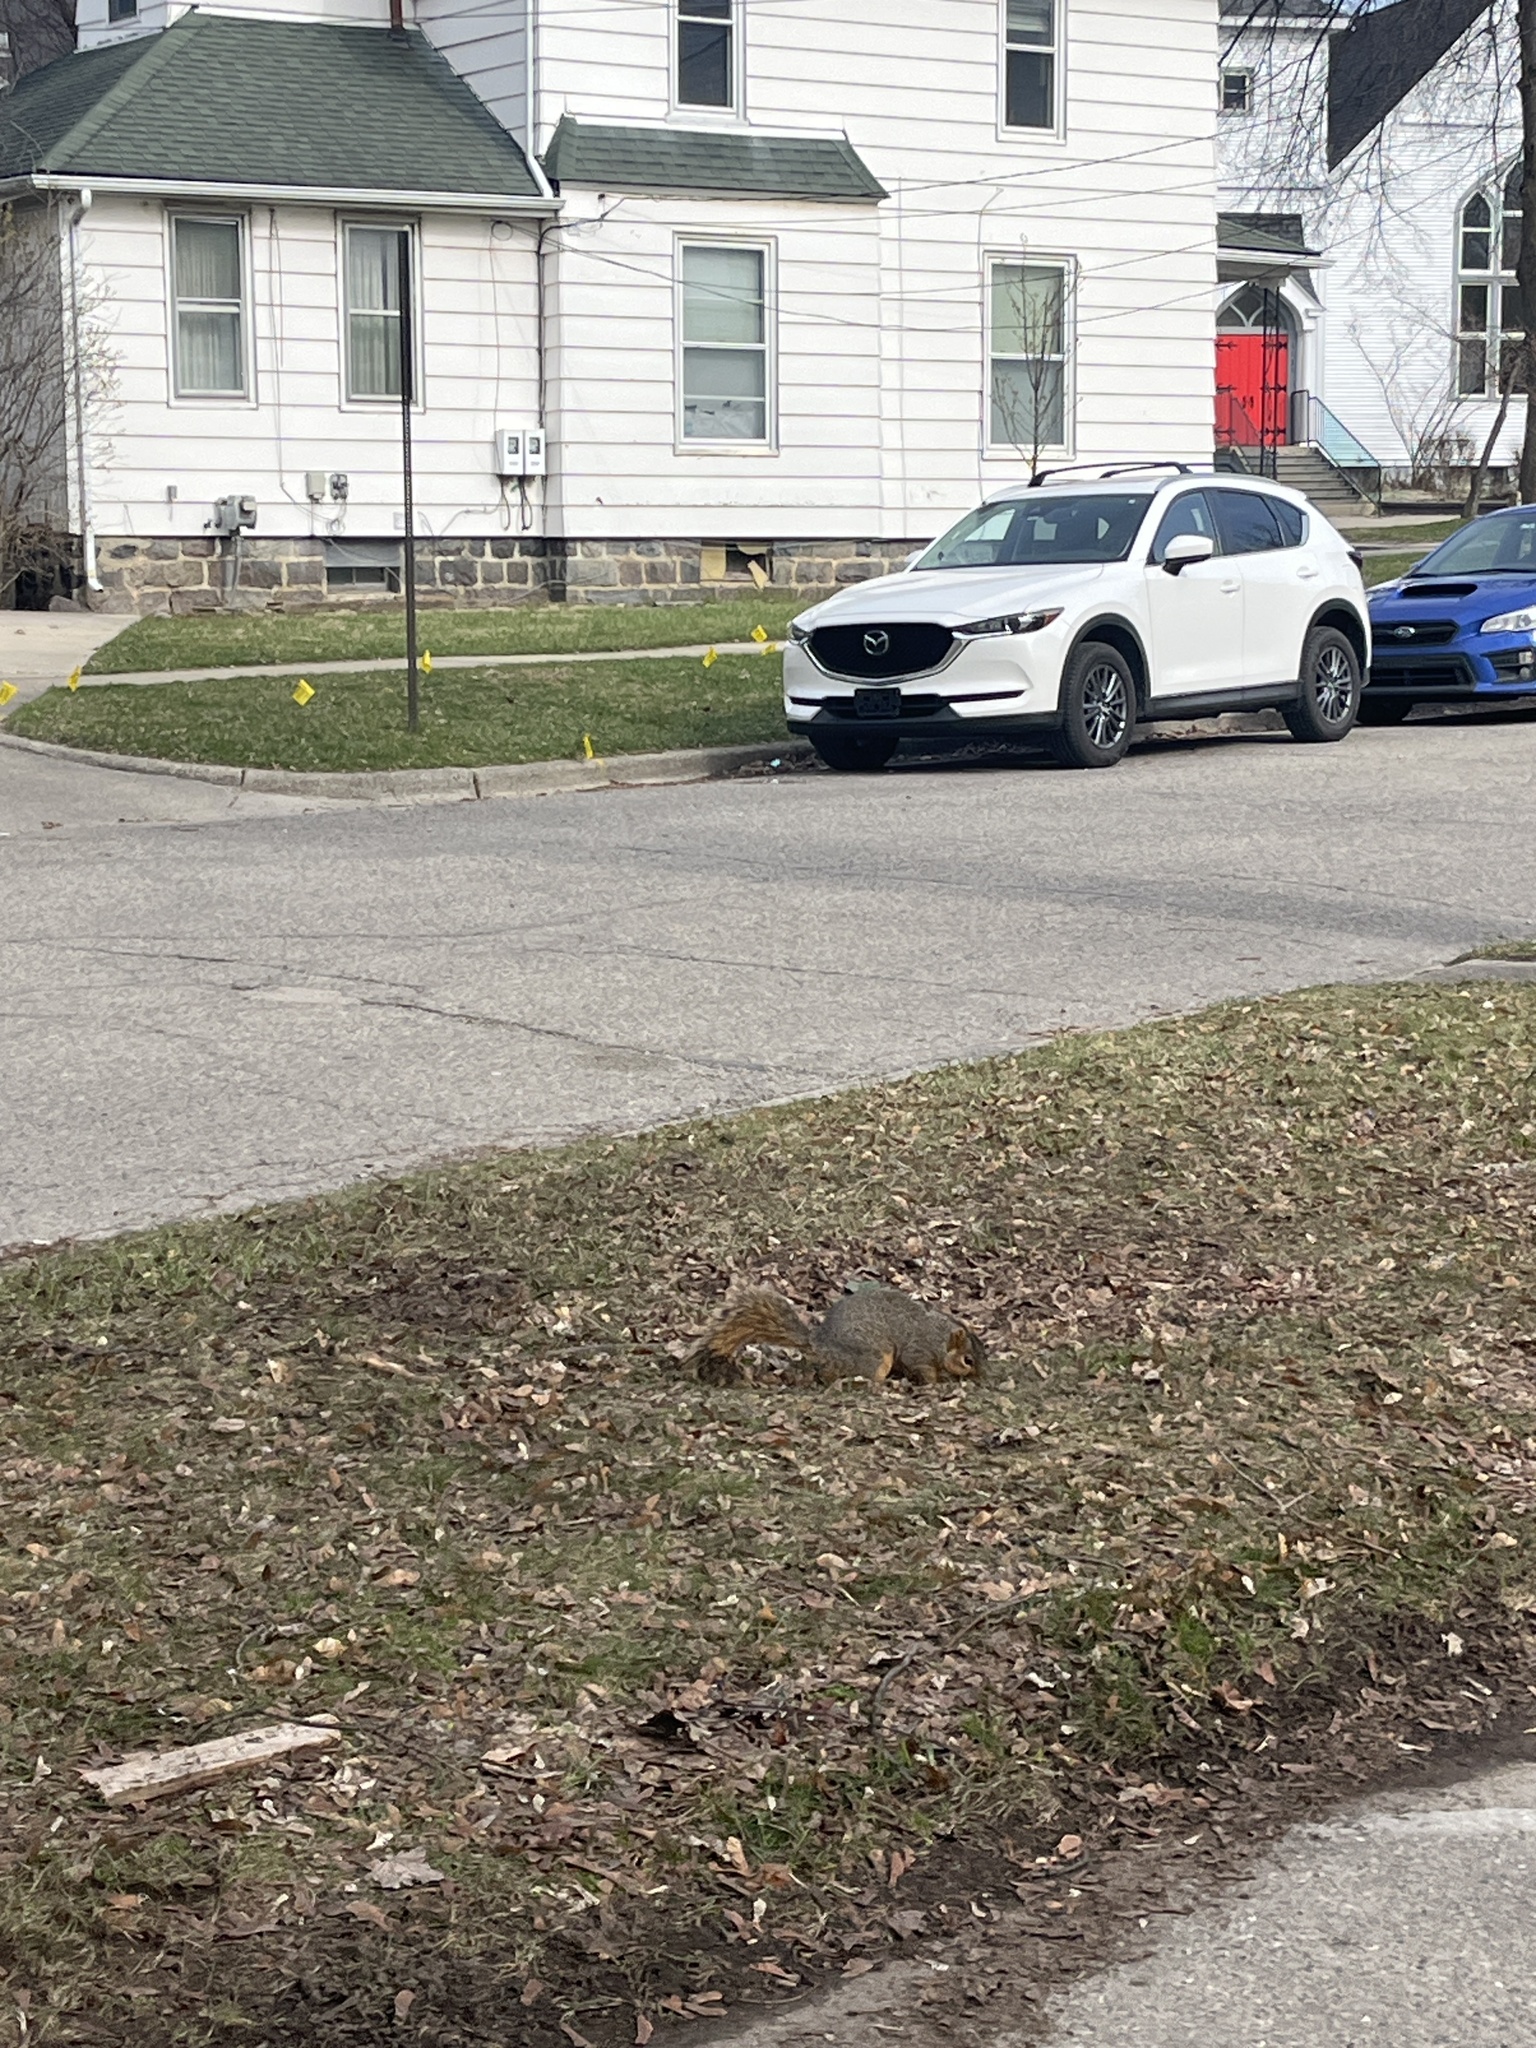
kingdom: Animalia
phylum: Chordata
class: Mammalia
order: Rodentia
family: Sciuridae
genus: Sciurus
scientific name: Sciurus niger
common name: Fox squirrel
